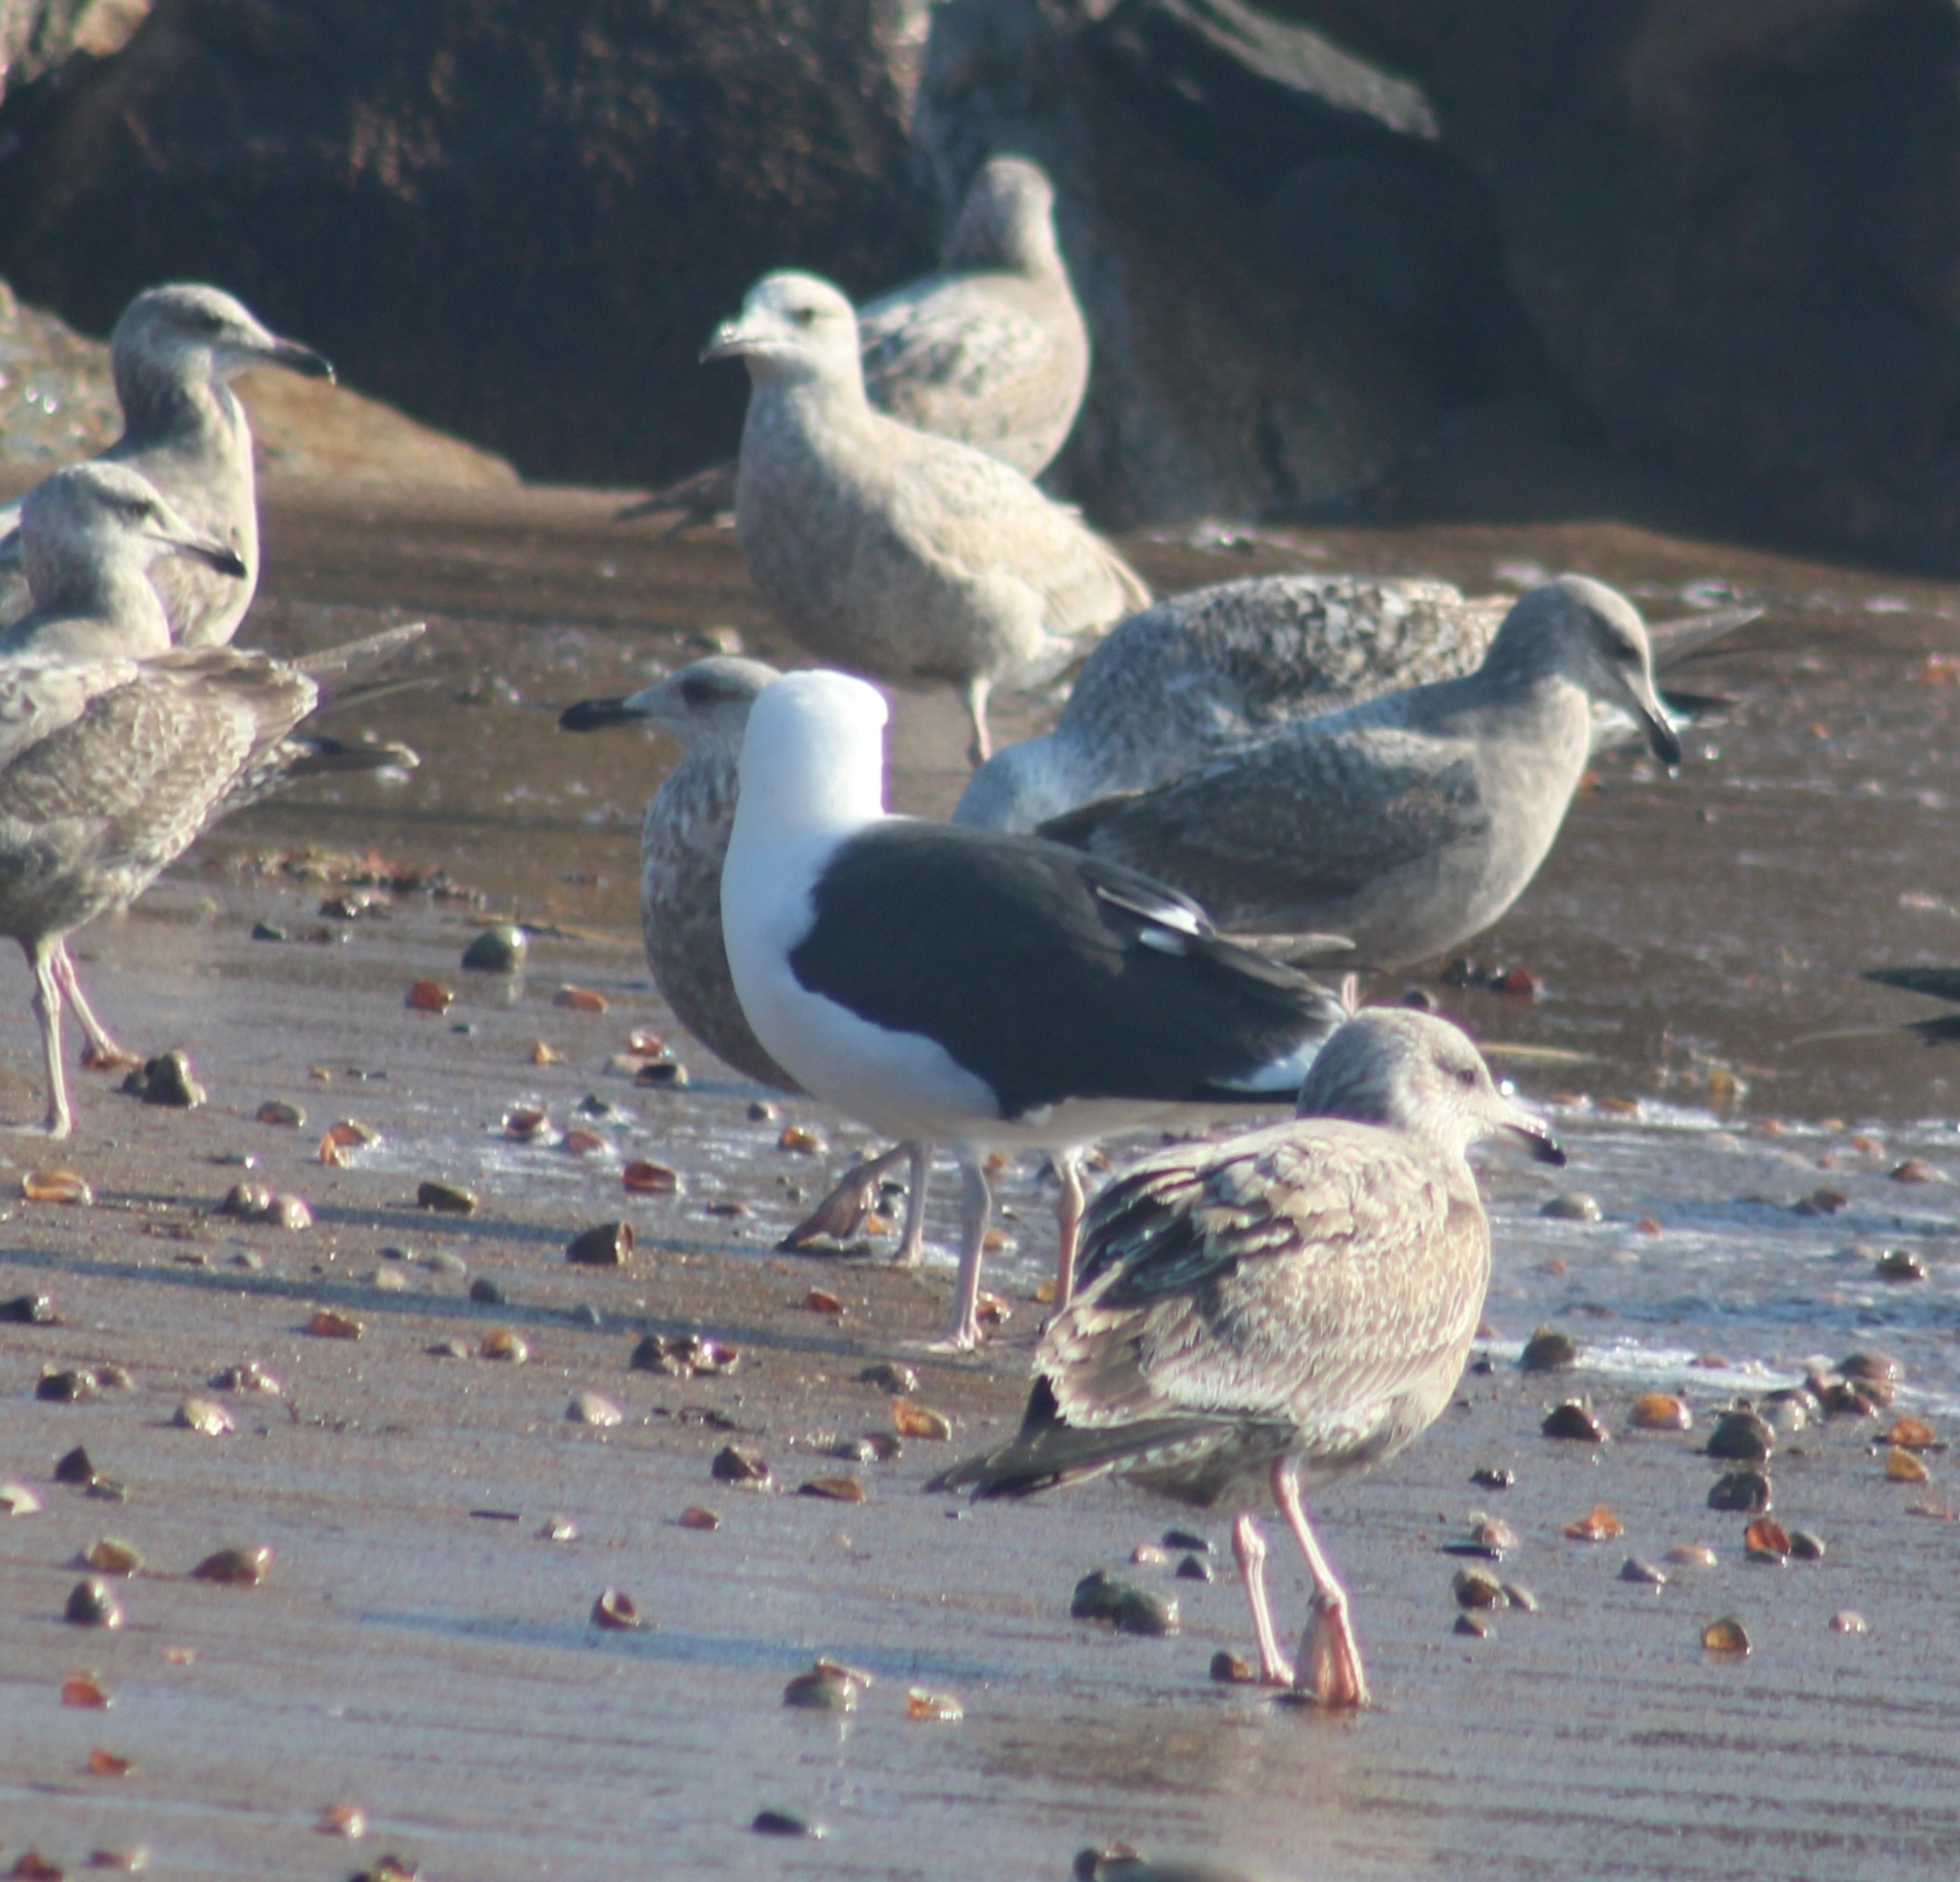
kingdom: Animalia
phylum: Chordata
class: Aves
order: Charadriiformes
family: Laridae
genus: Larus
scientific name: Larus marinus
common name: Great black-backed gull
